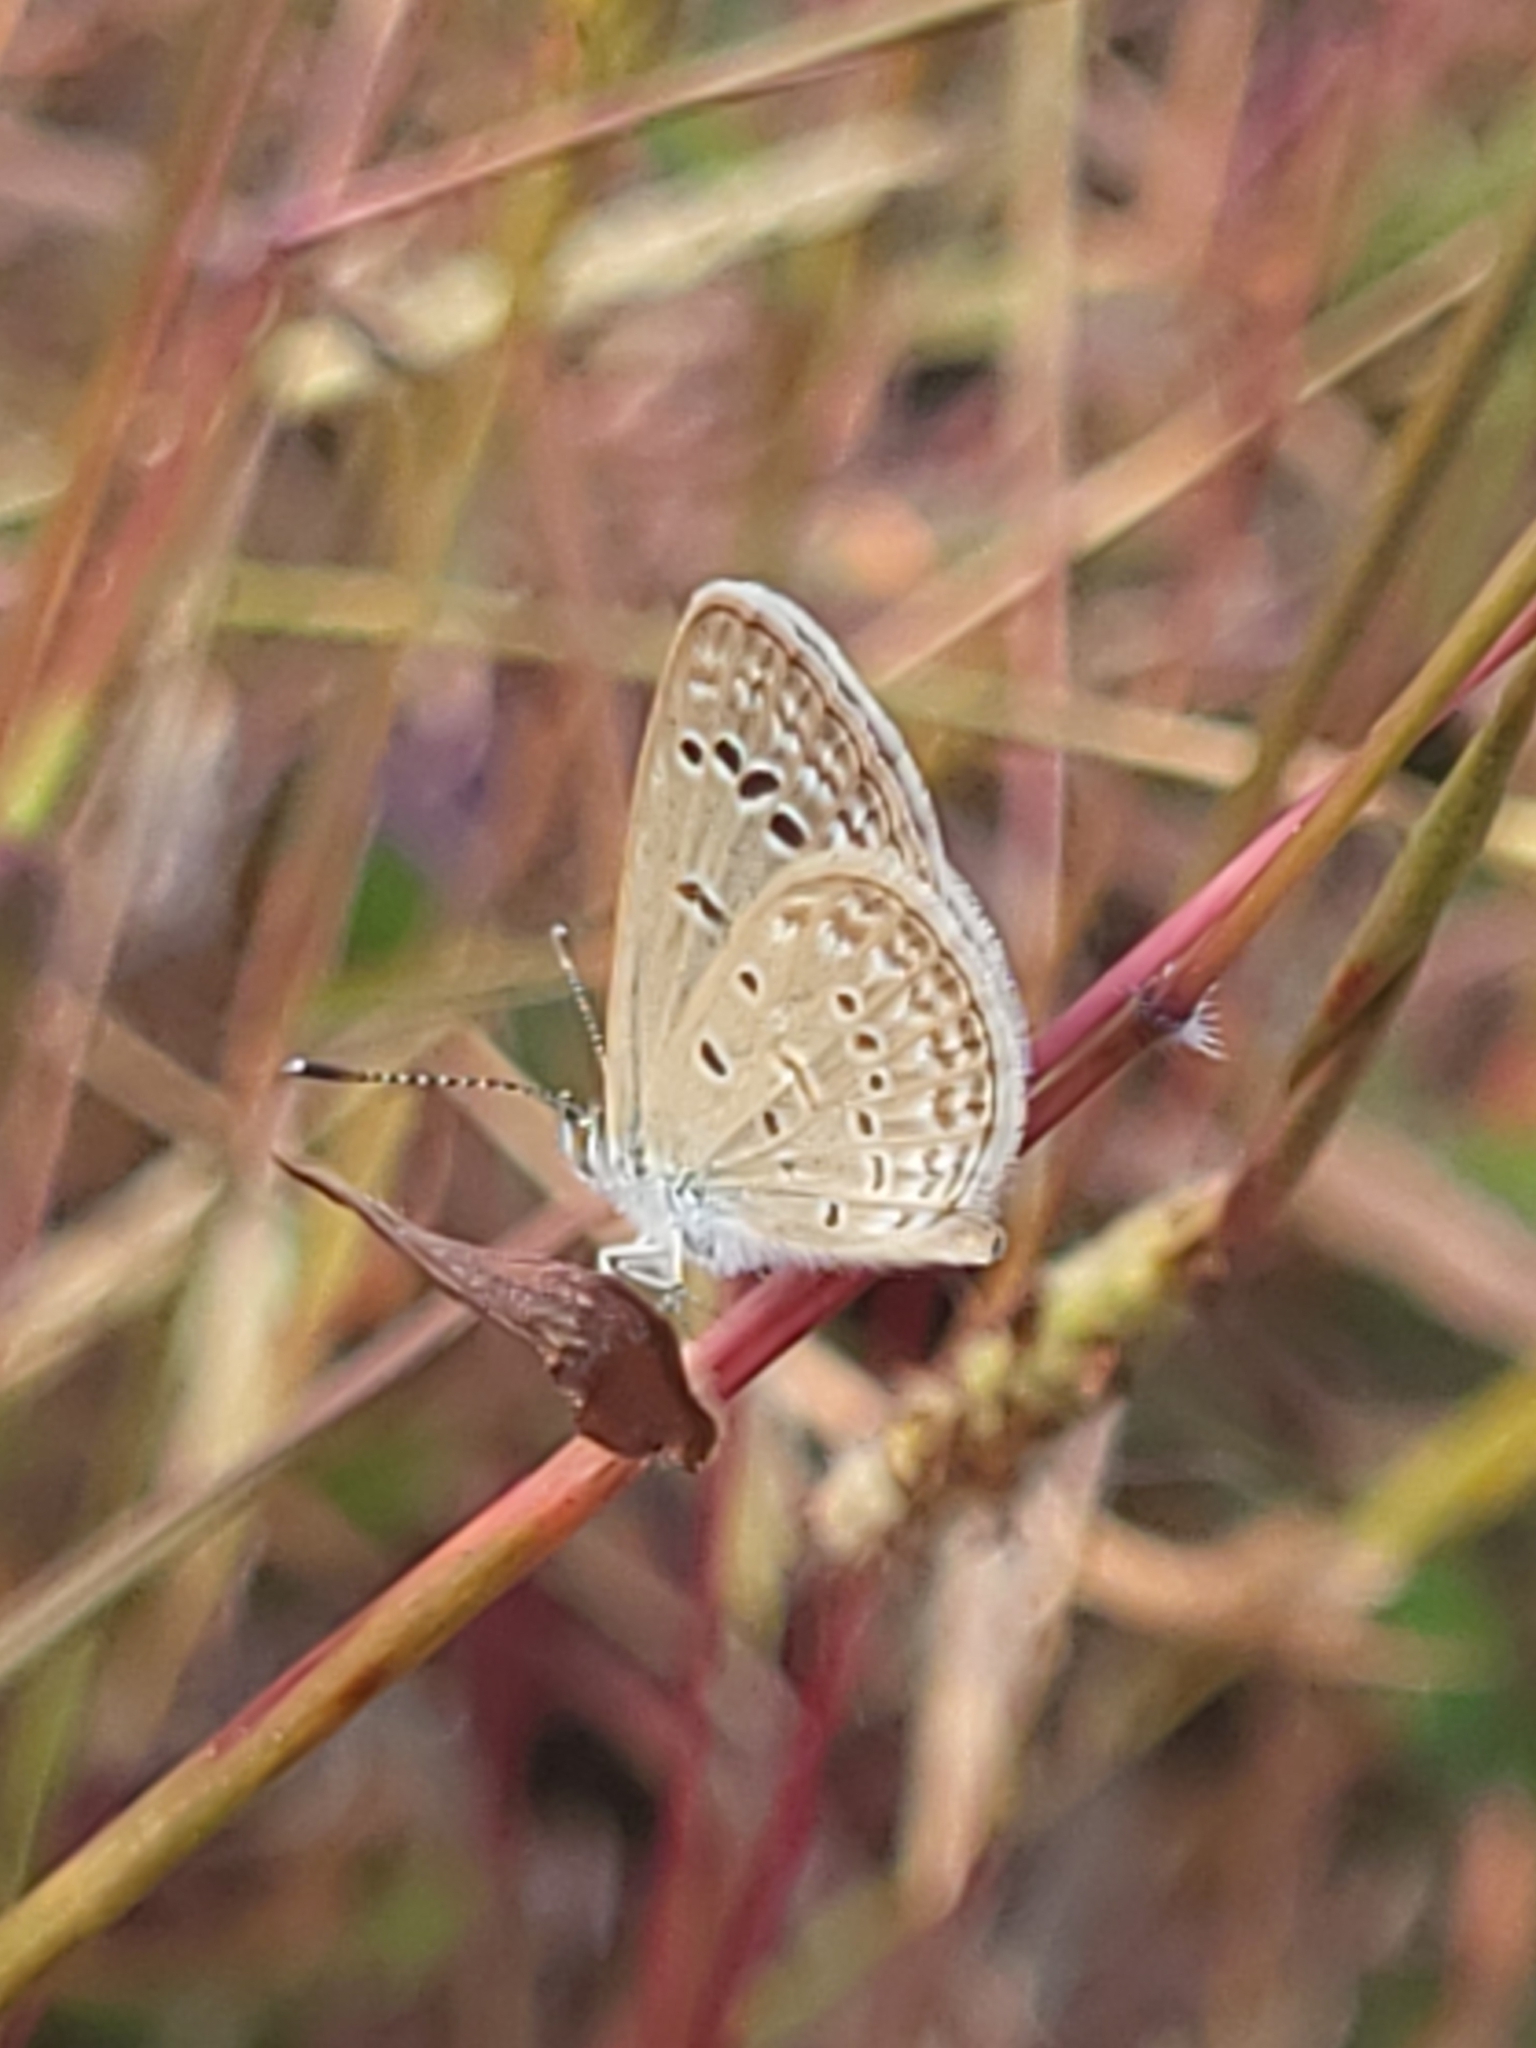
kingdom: Animalia
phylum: Arthropoda
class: Insecta
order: Lepidoptera
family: Lycaenidae
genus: Zizina
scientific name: Zizina otis
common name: Lesser grass blue
